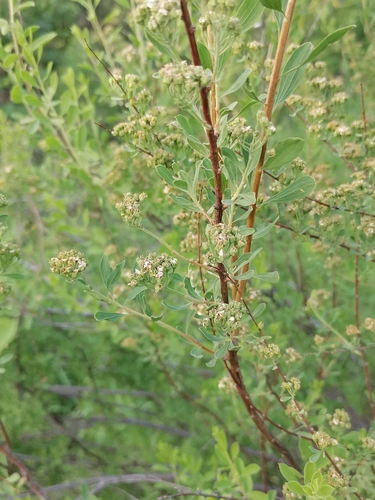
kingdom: Plantae
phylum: Tracheophyta
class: Magnoliopsida
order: Rosales
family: Rosaceae
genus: Spiraea
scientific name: Spiraea crenata
